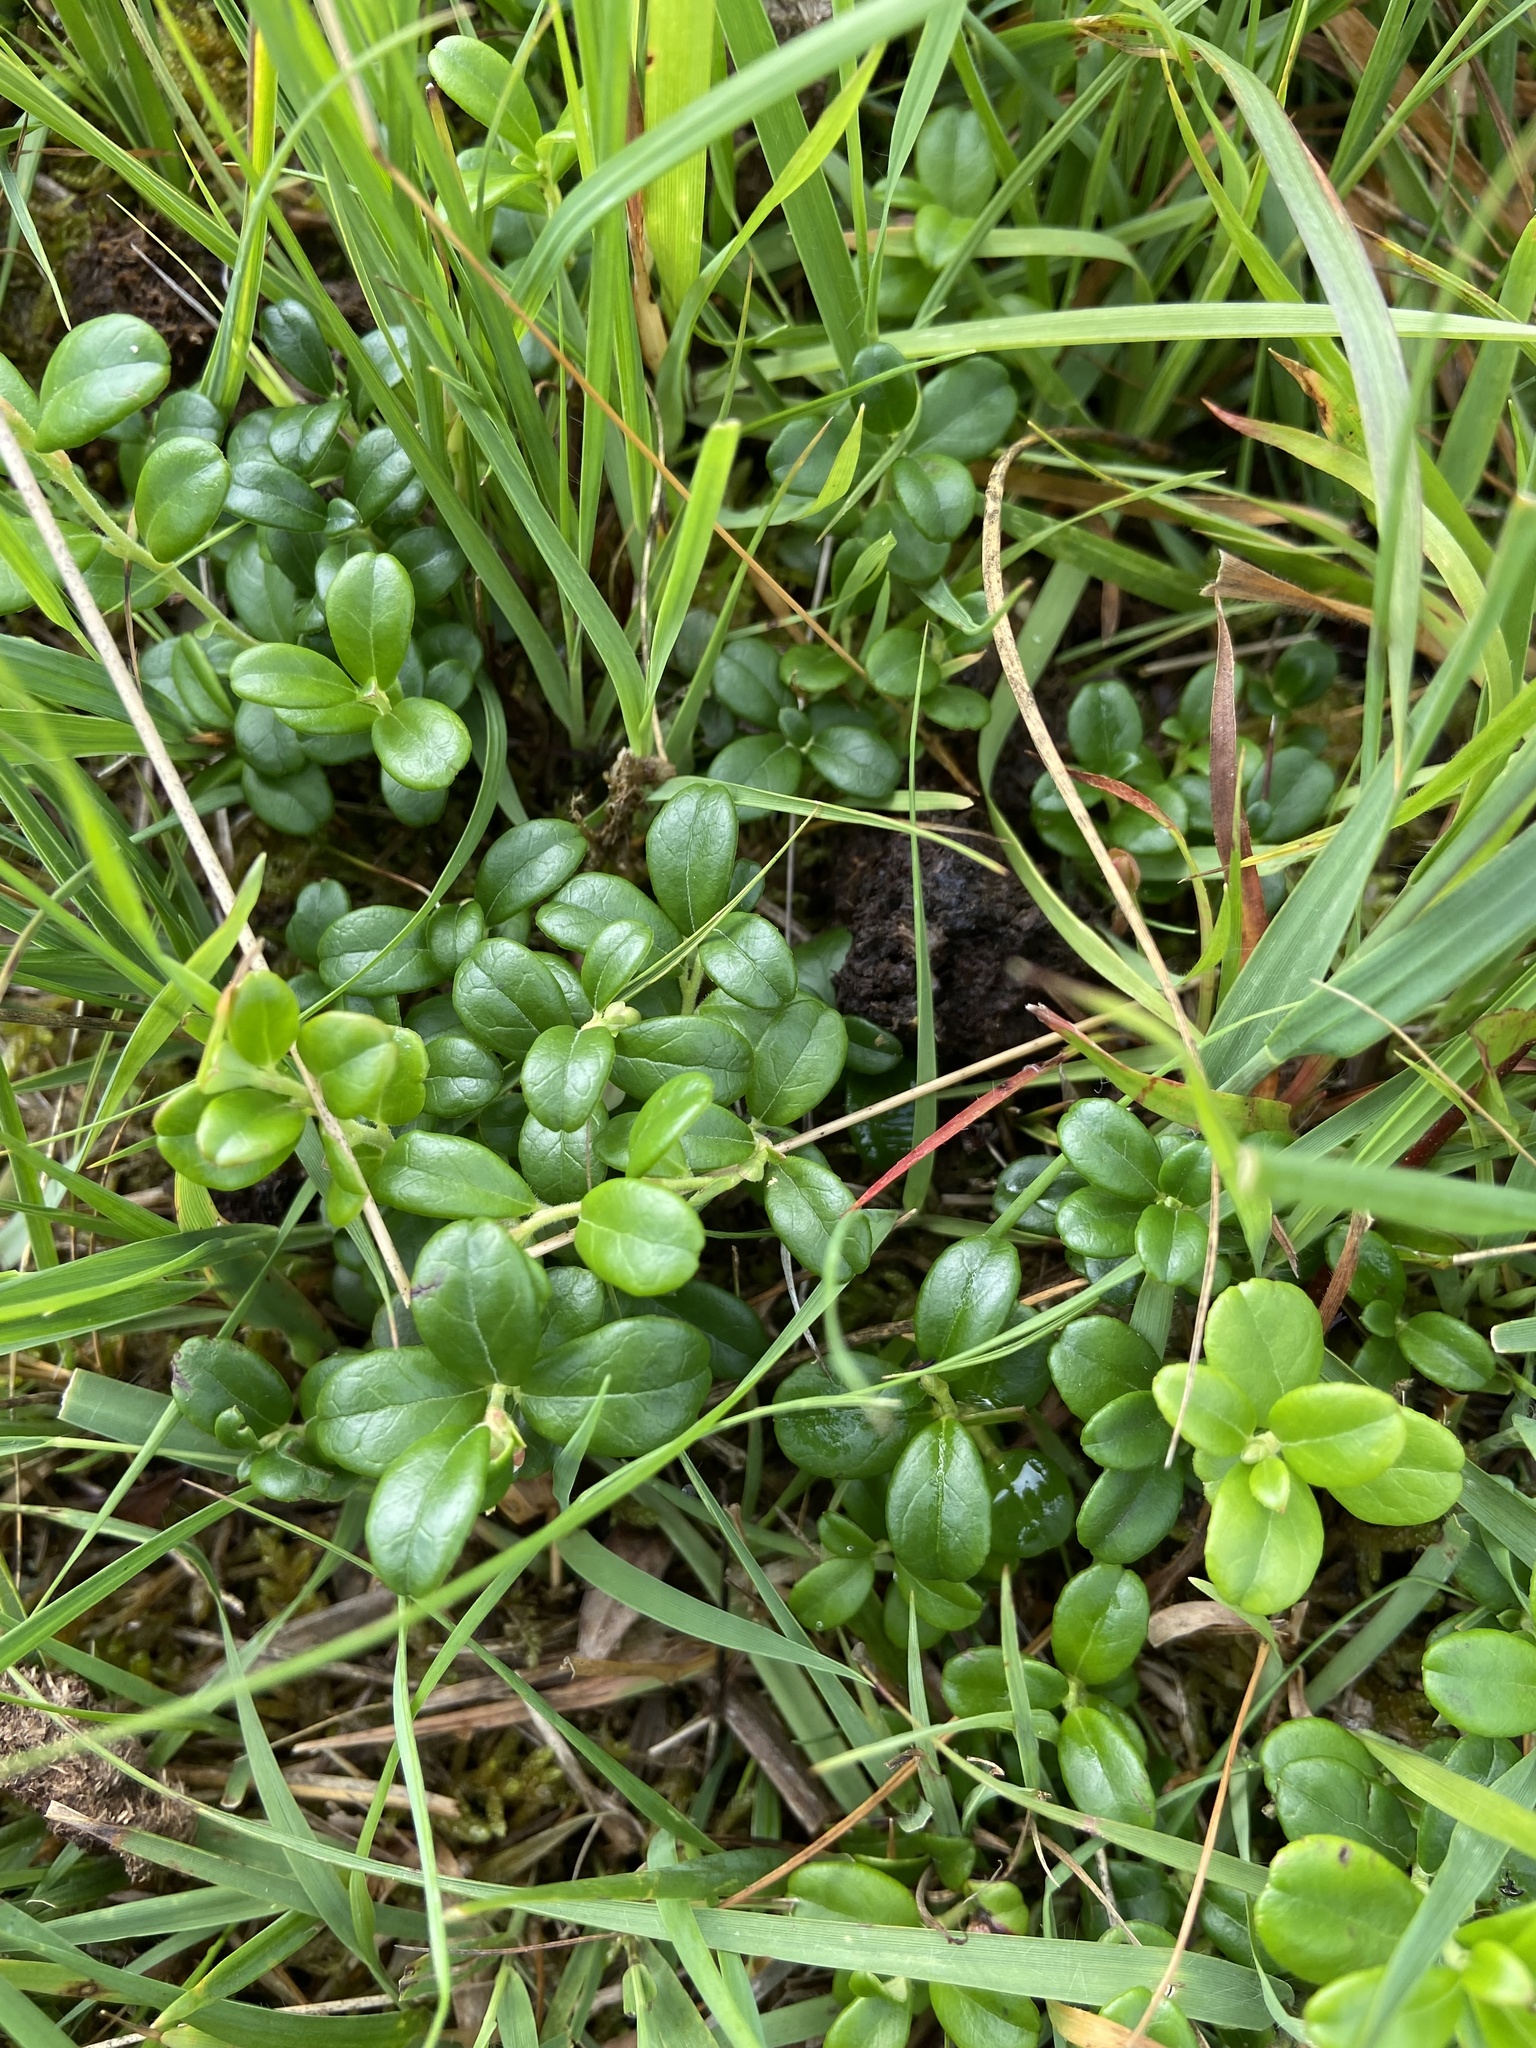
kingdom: Plantae
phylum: Tracheophyta
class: Magnoliopsida
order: Ericales
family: Ericaceae
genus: Vaccinium
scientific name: Vaccinium vitis-idaea
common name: Cowberry
